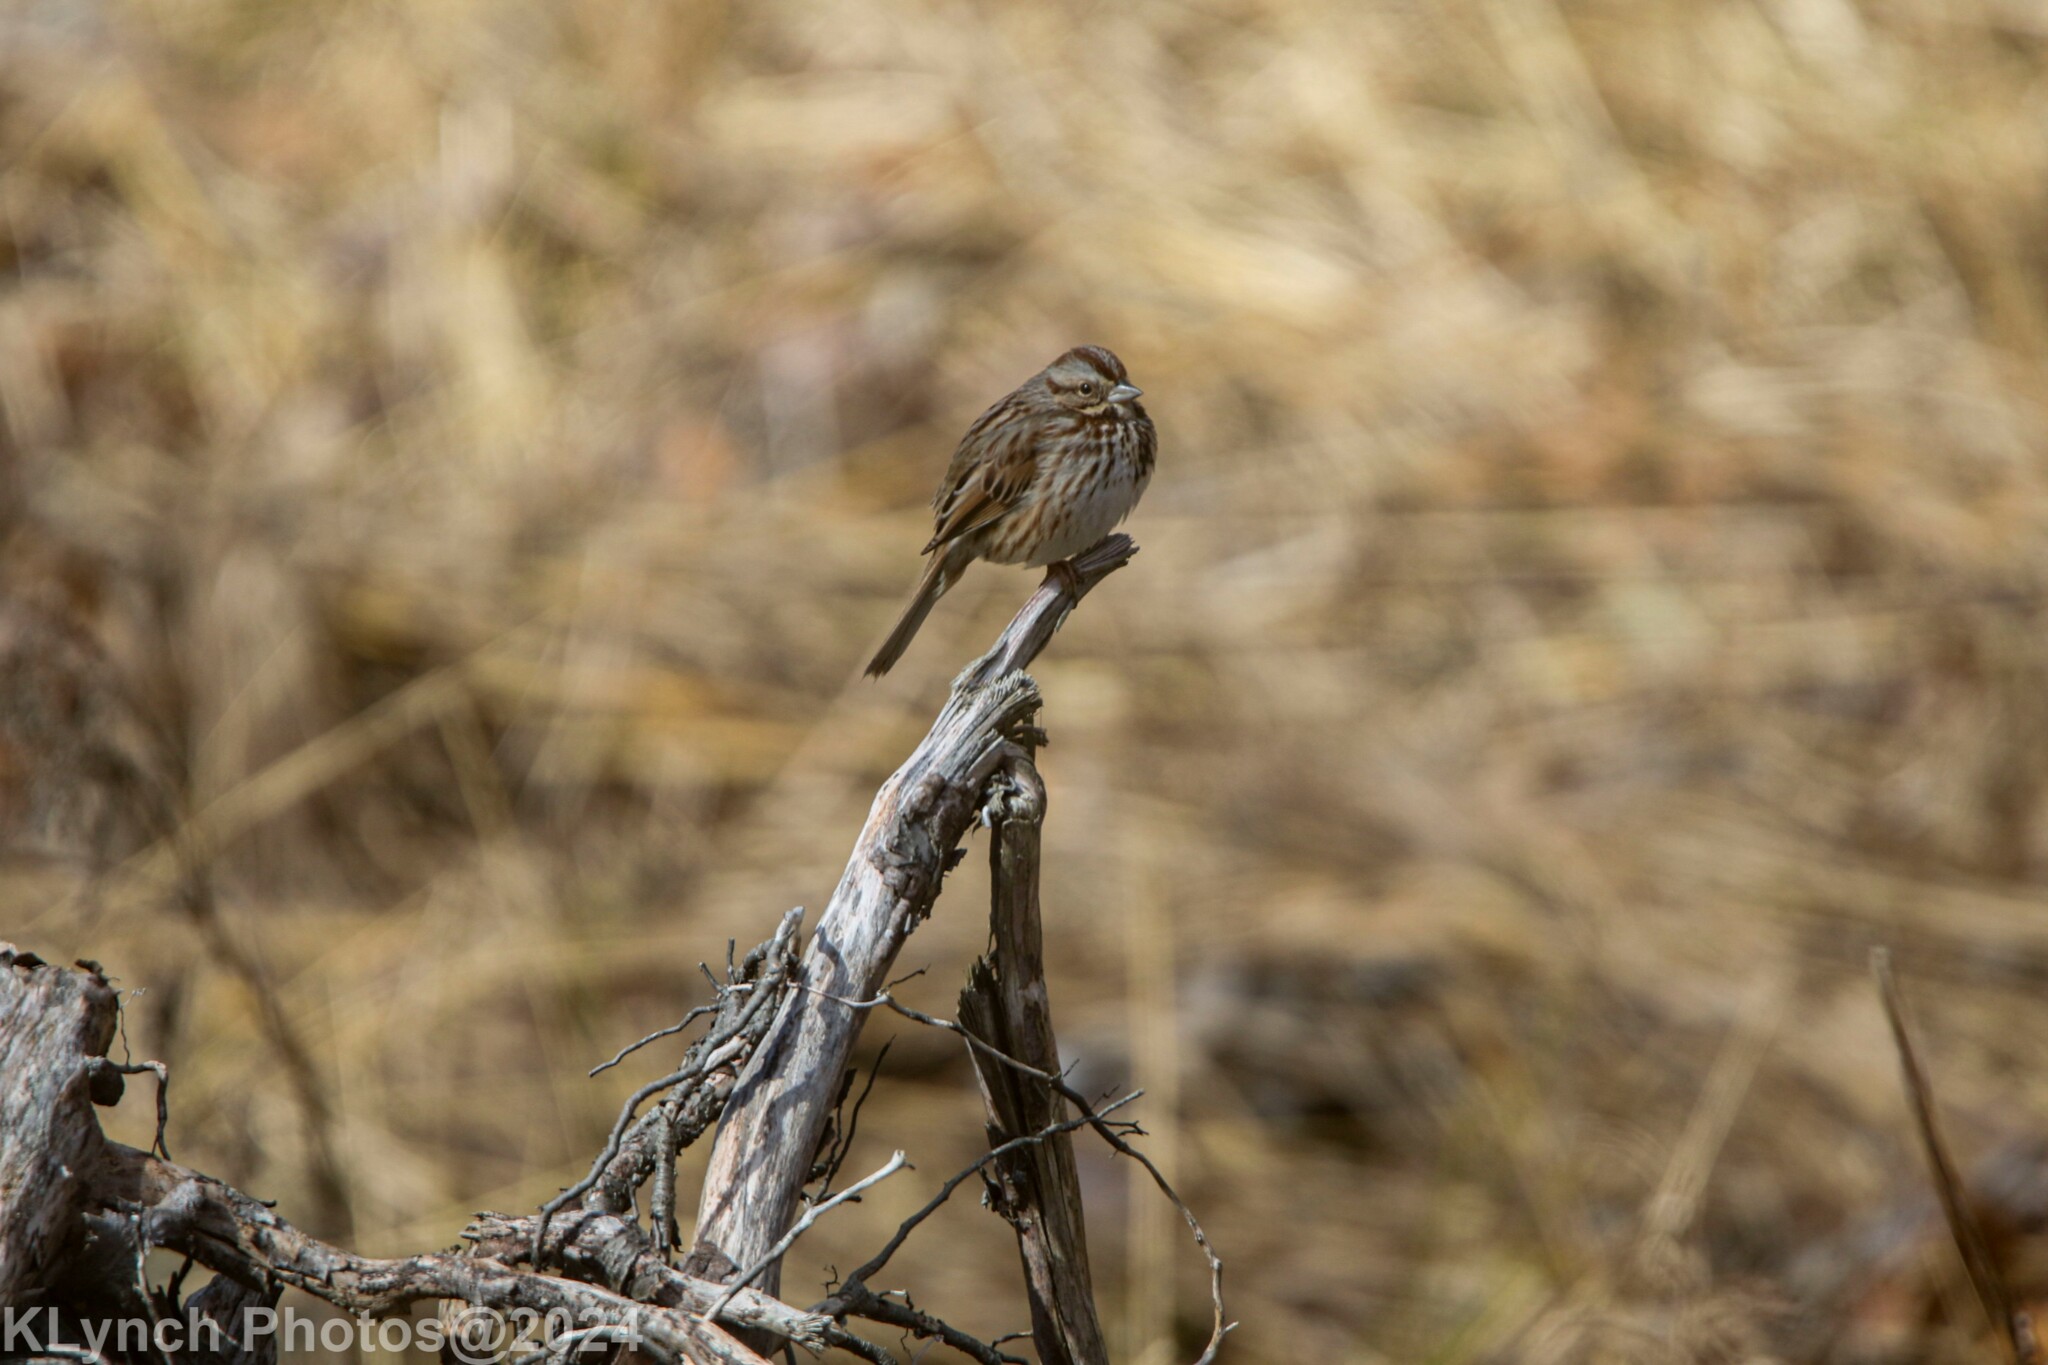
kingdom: Animalia
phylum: Chordata
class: Aves
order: Passeriformes
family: Passerellidae
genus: Melospiza
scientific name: Melospiza melodia
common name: Song sparrow
